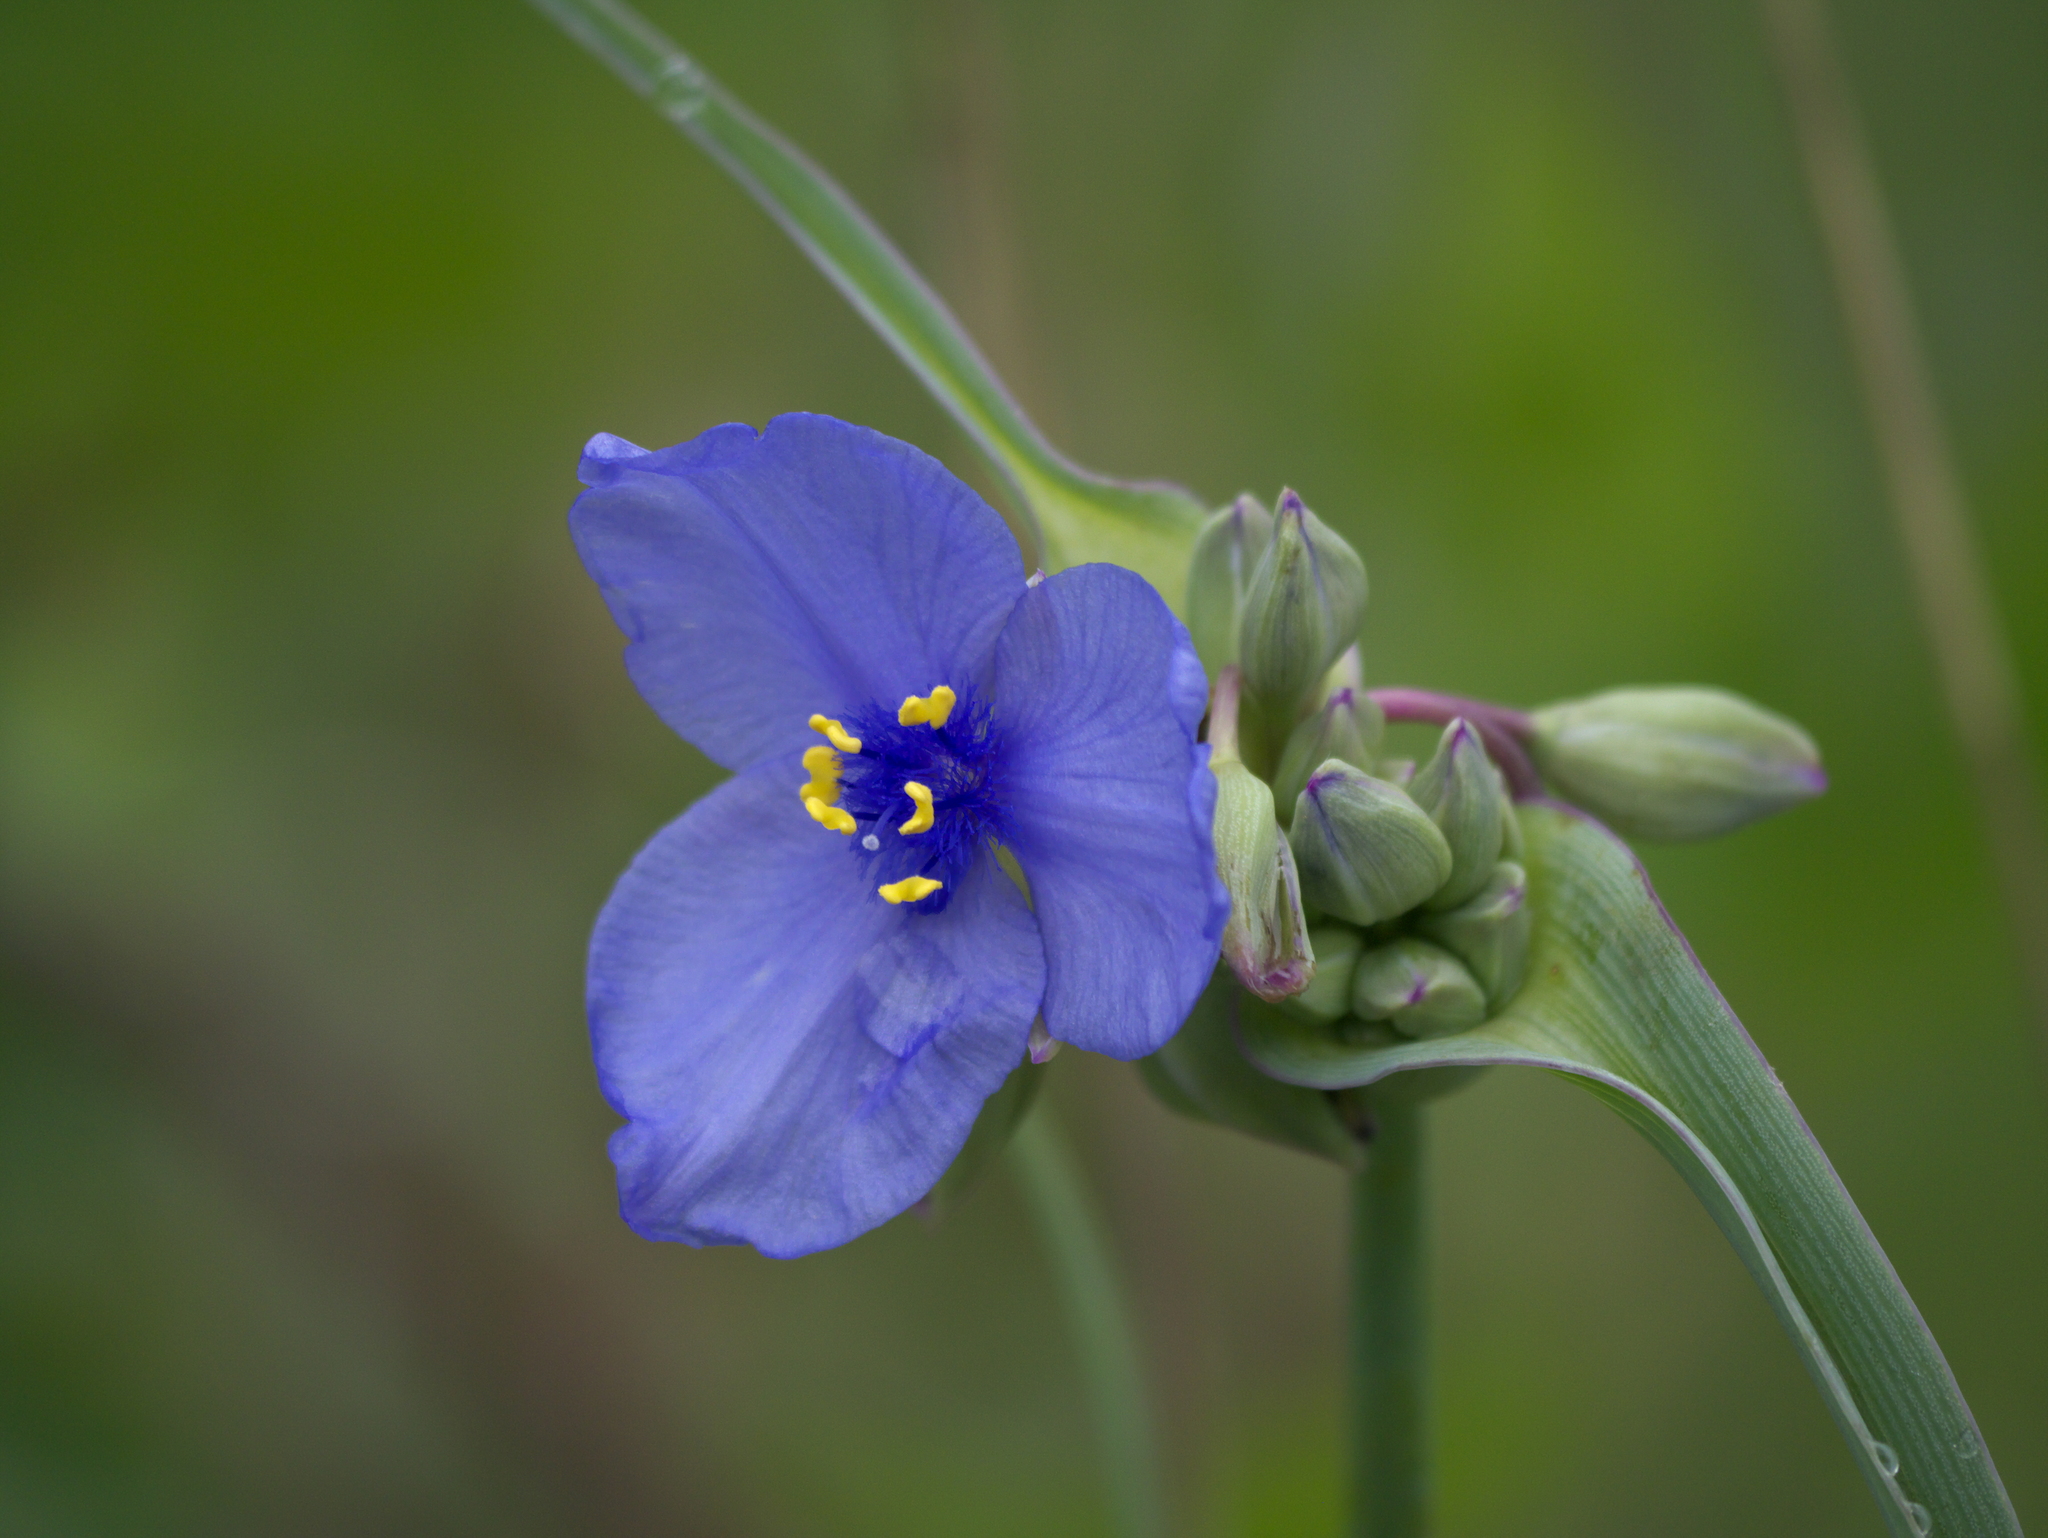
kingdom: Plantae
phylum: Tracheophyta
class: Liliopsida
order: Commelinales
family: Commelinaceae
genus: Tradescantia
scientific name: Tradescantia ohiensis
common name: Ohio spiderwort
